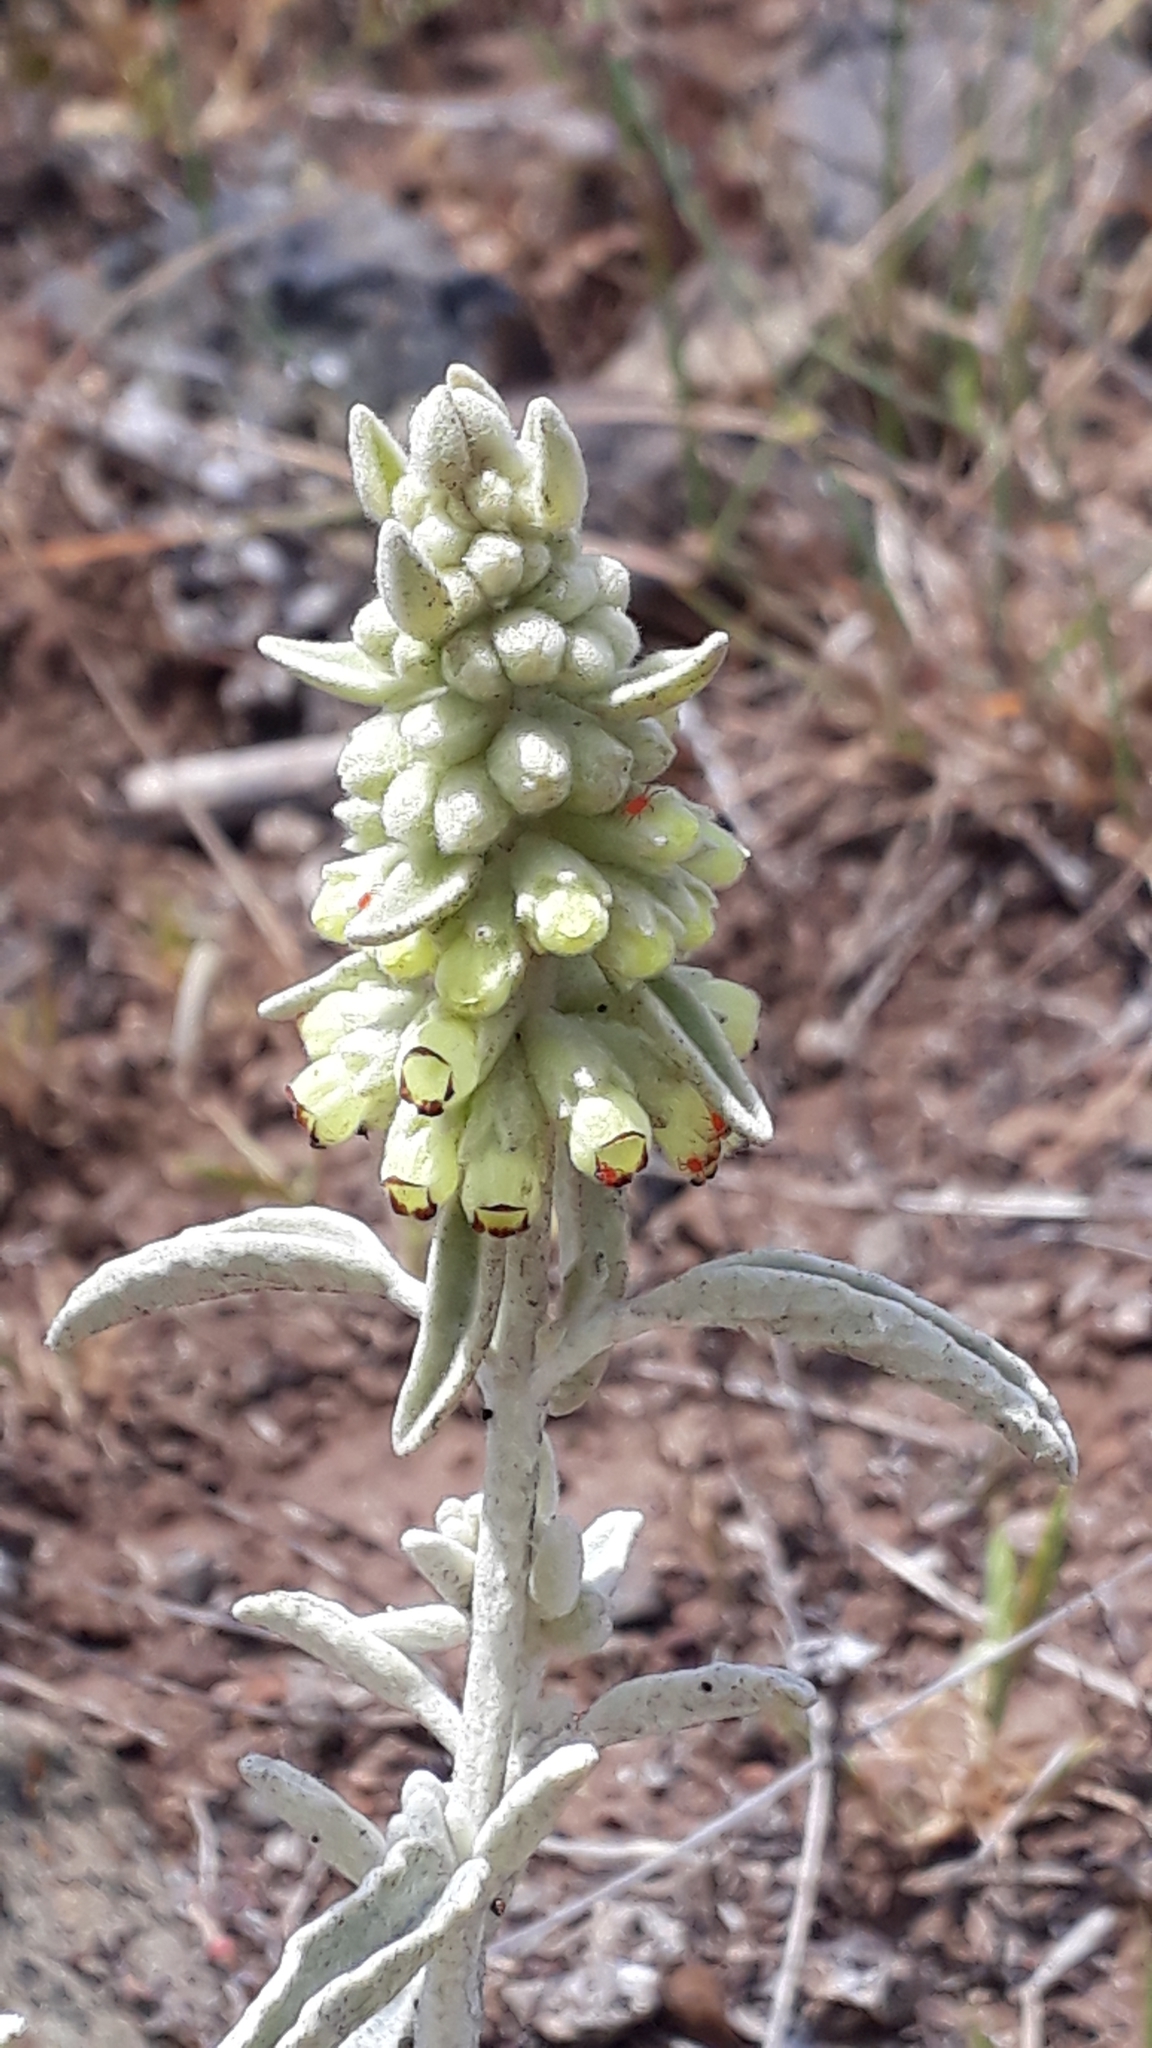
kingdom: Plantae
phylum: Tracheophyta
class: Magnoliopsida
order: Lamiales
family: Lamiaceae
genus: Sideritis
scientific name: Sideritis santosii
